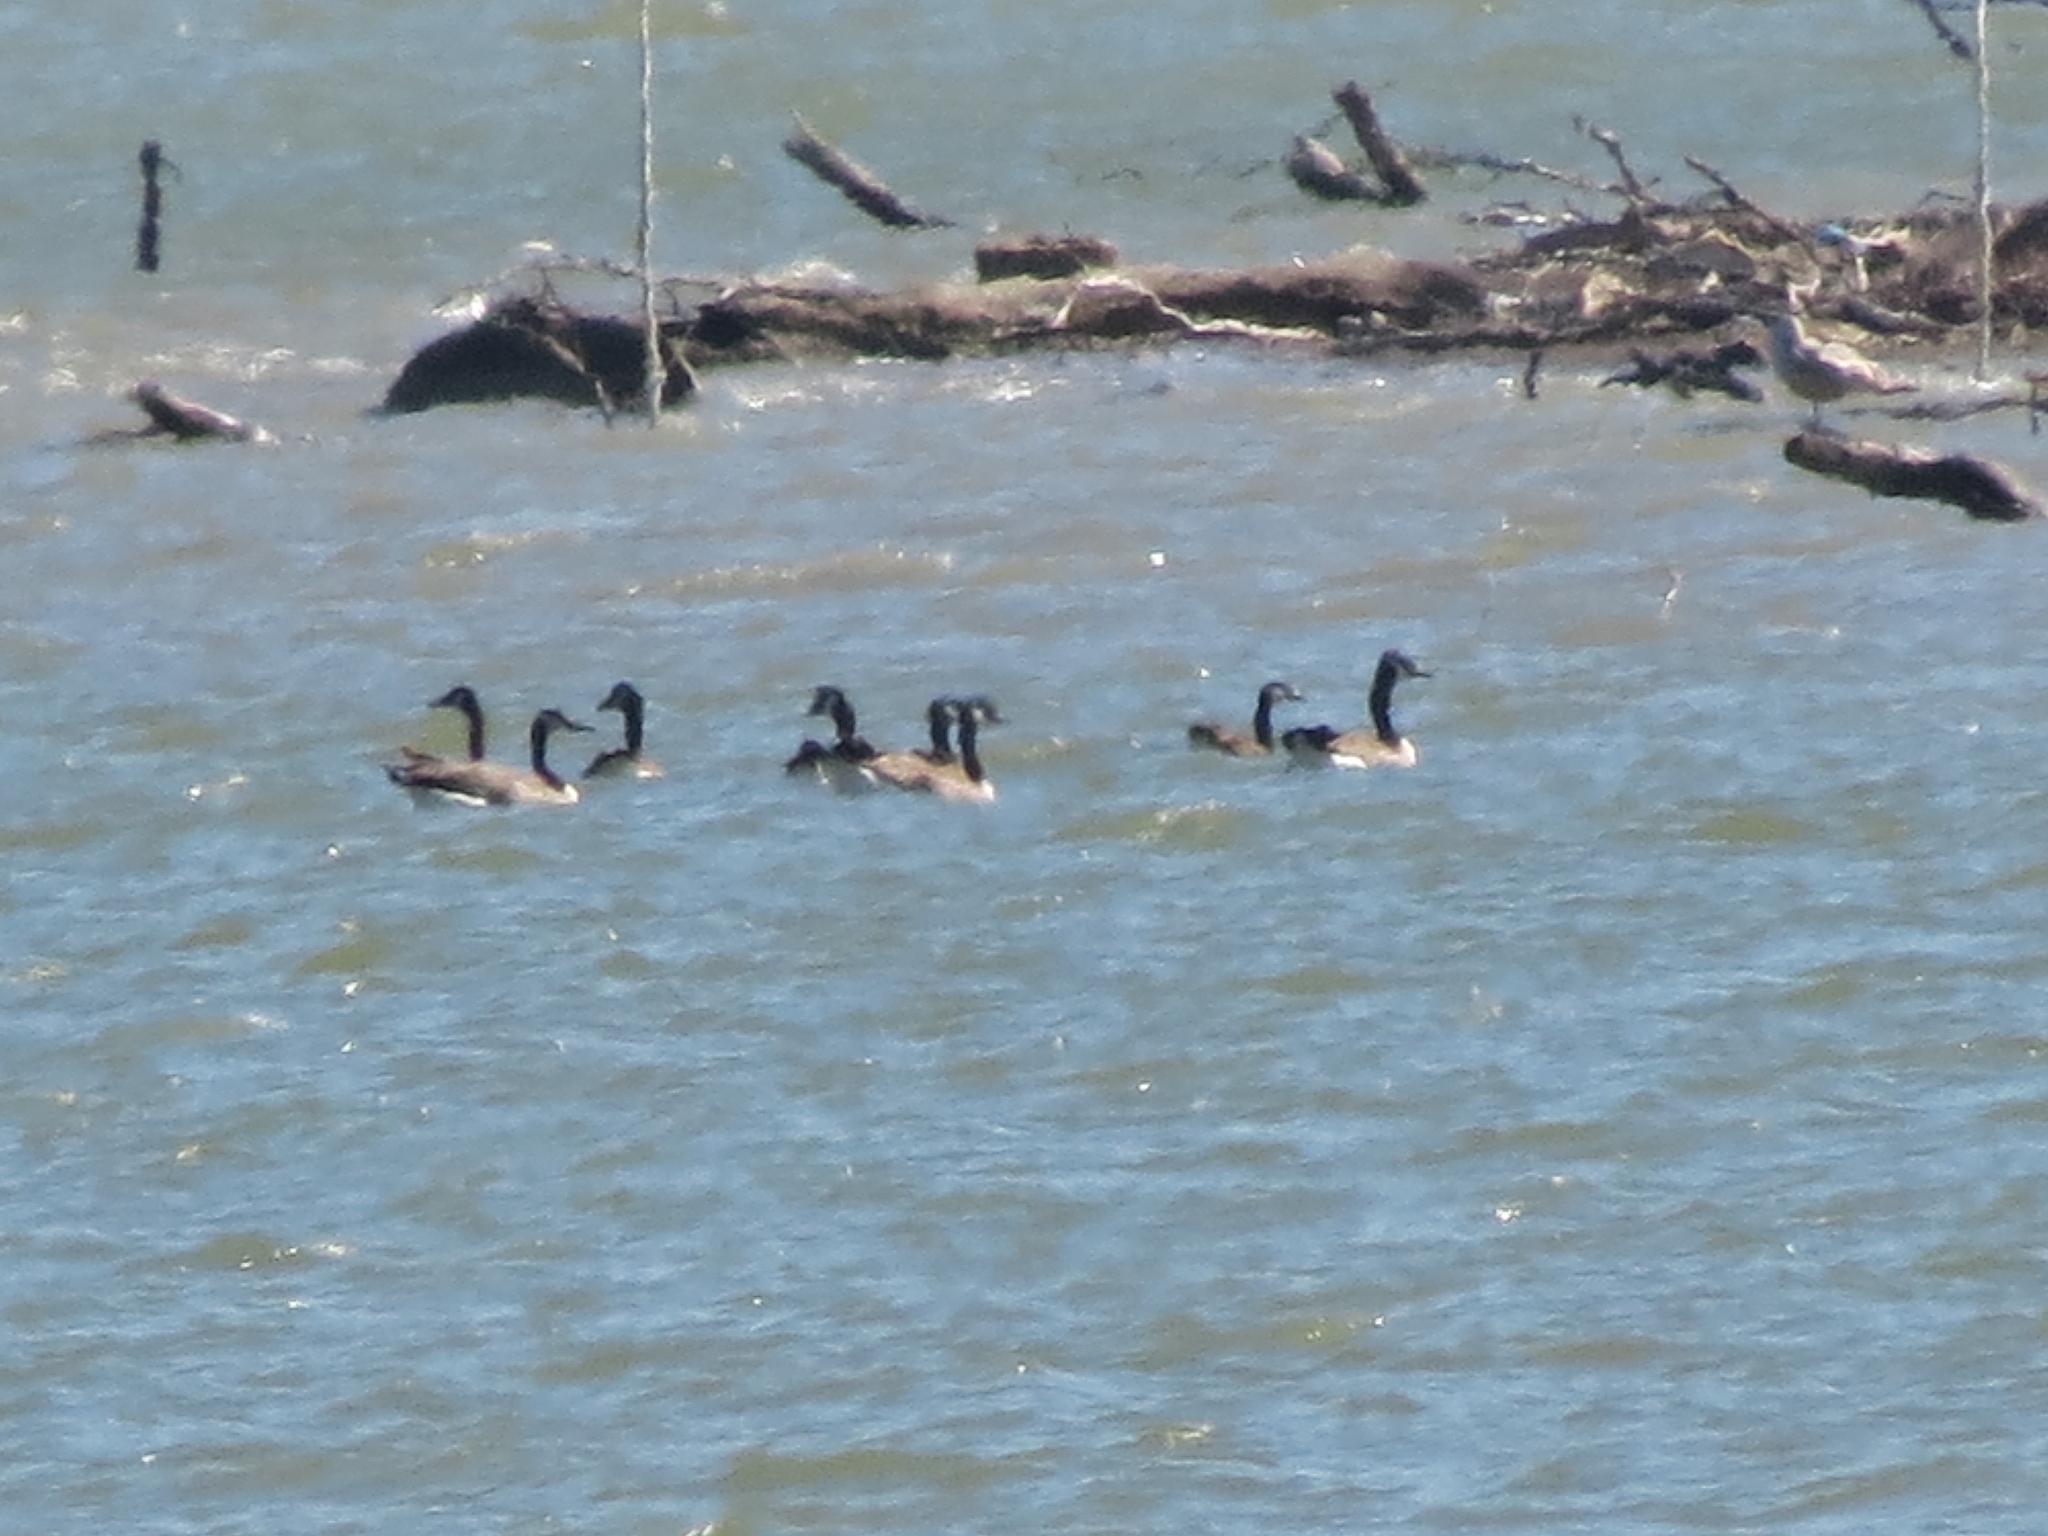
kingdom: Animalia
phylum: Chordata
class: Aves
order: Anseriformes
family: Anatidae
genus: Branta
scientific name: Branta canadensis
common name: Canada goose
